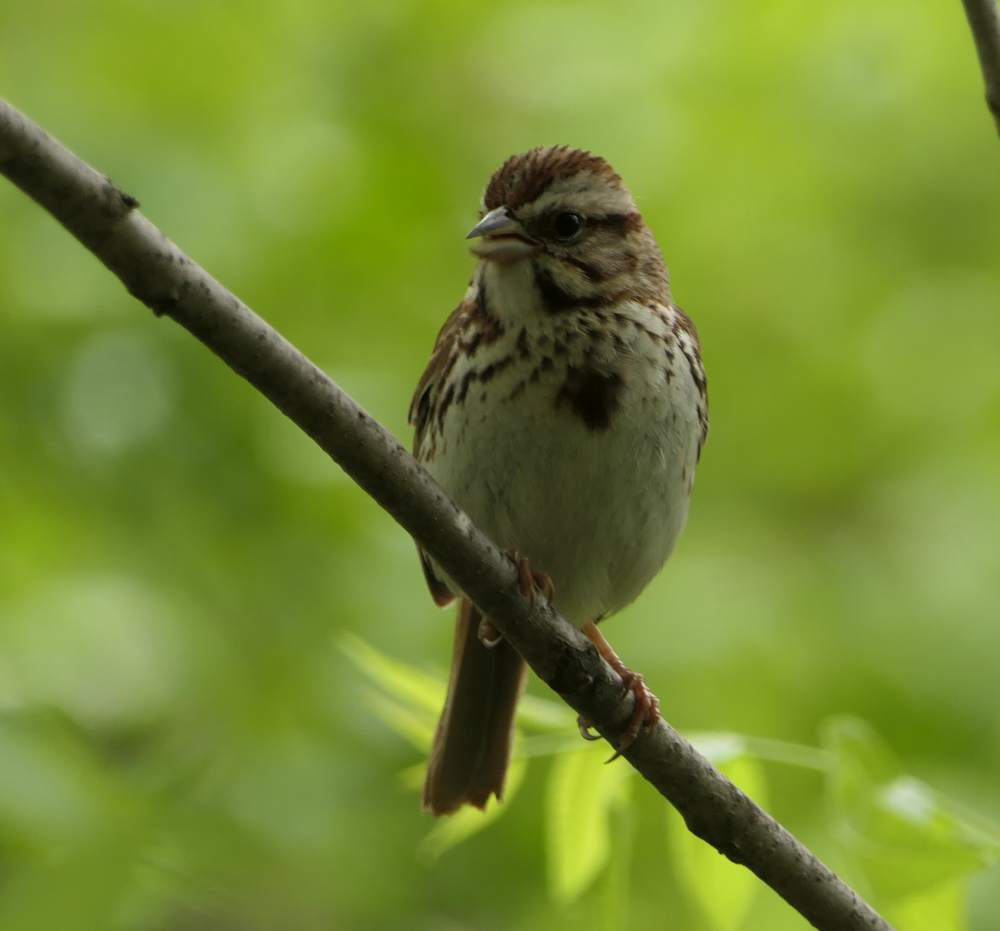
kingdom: Animalia
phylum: Chordata
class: Aves
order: Passeriformes
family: Passerellidae
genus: Melospiza
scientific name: Melospiza melodia
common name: Song sparrow
